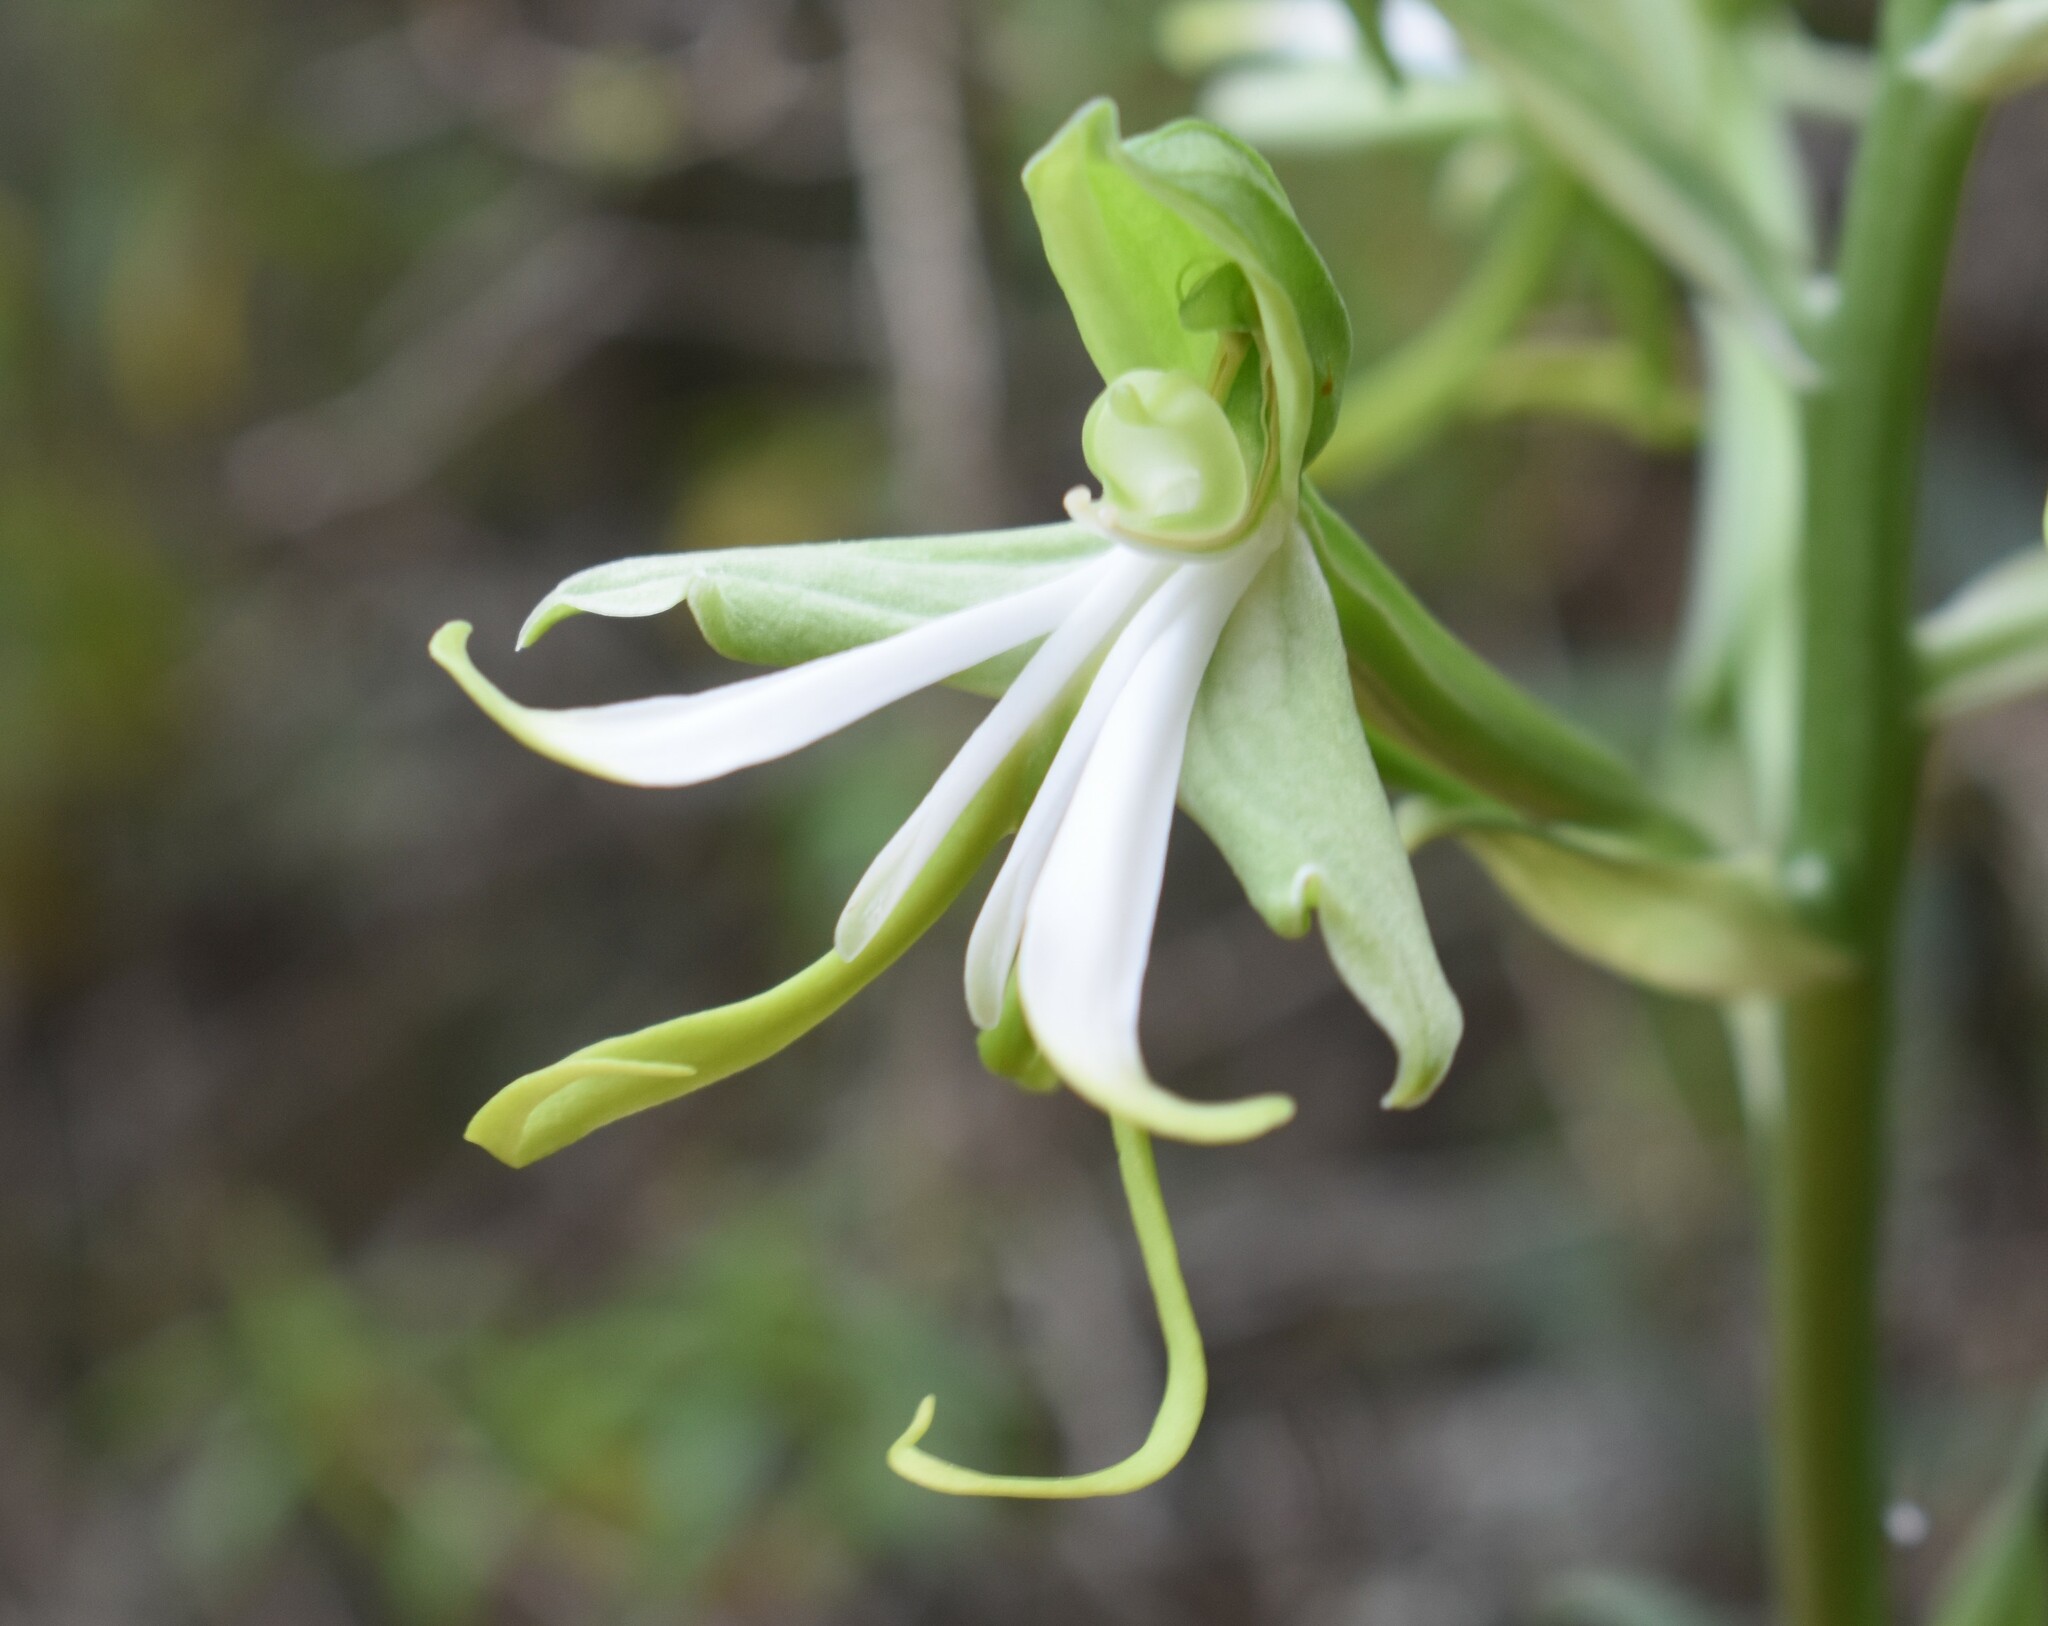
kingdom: Plantae
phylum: Tracheophyta
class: Liliopsida
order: Asparagales
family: Orchidaceae
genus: Bonatea
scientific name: Bonatea speciosa
